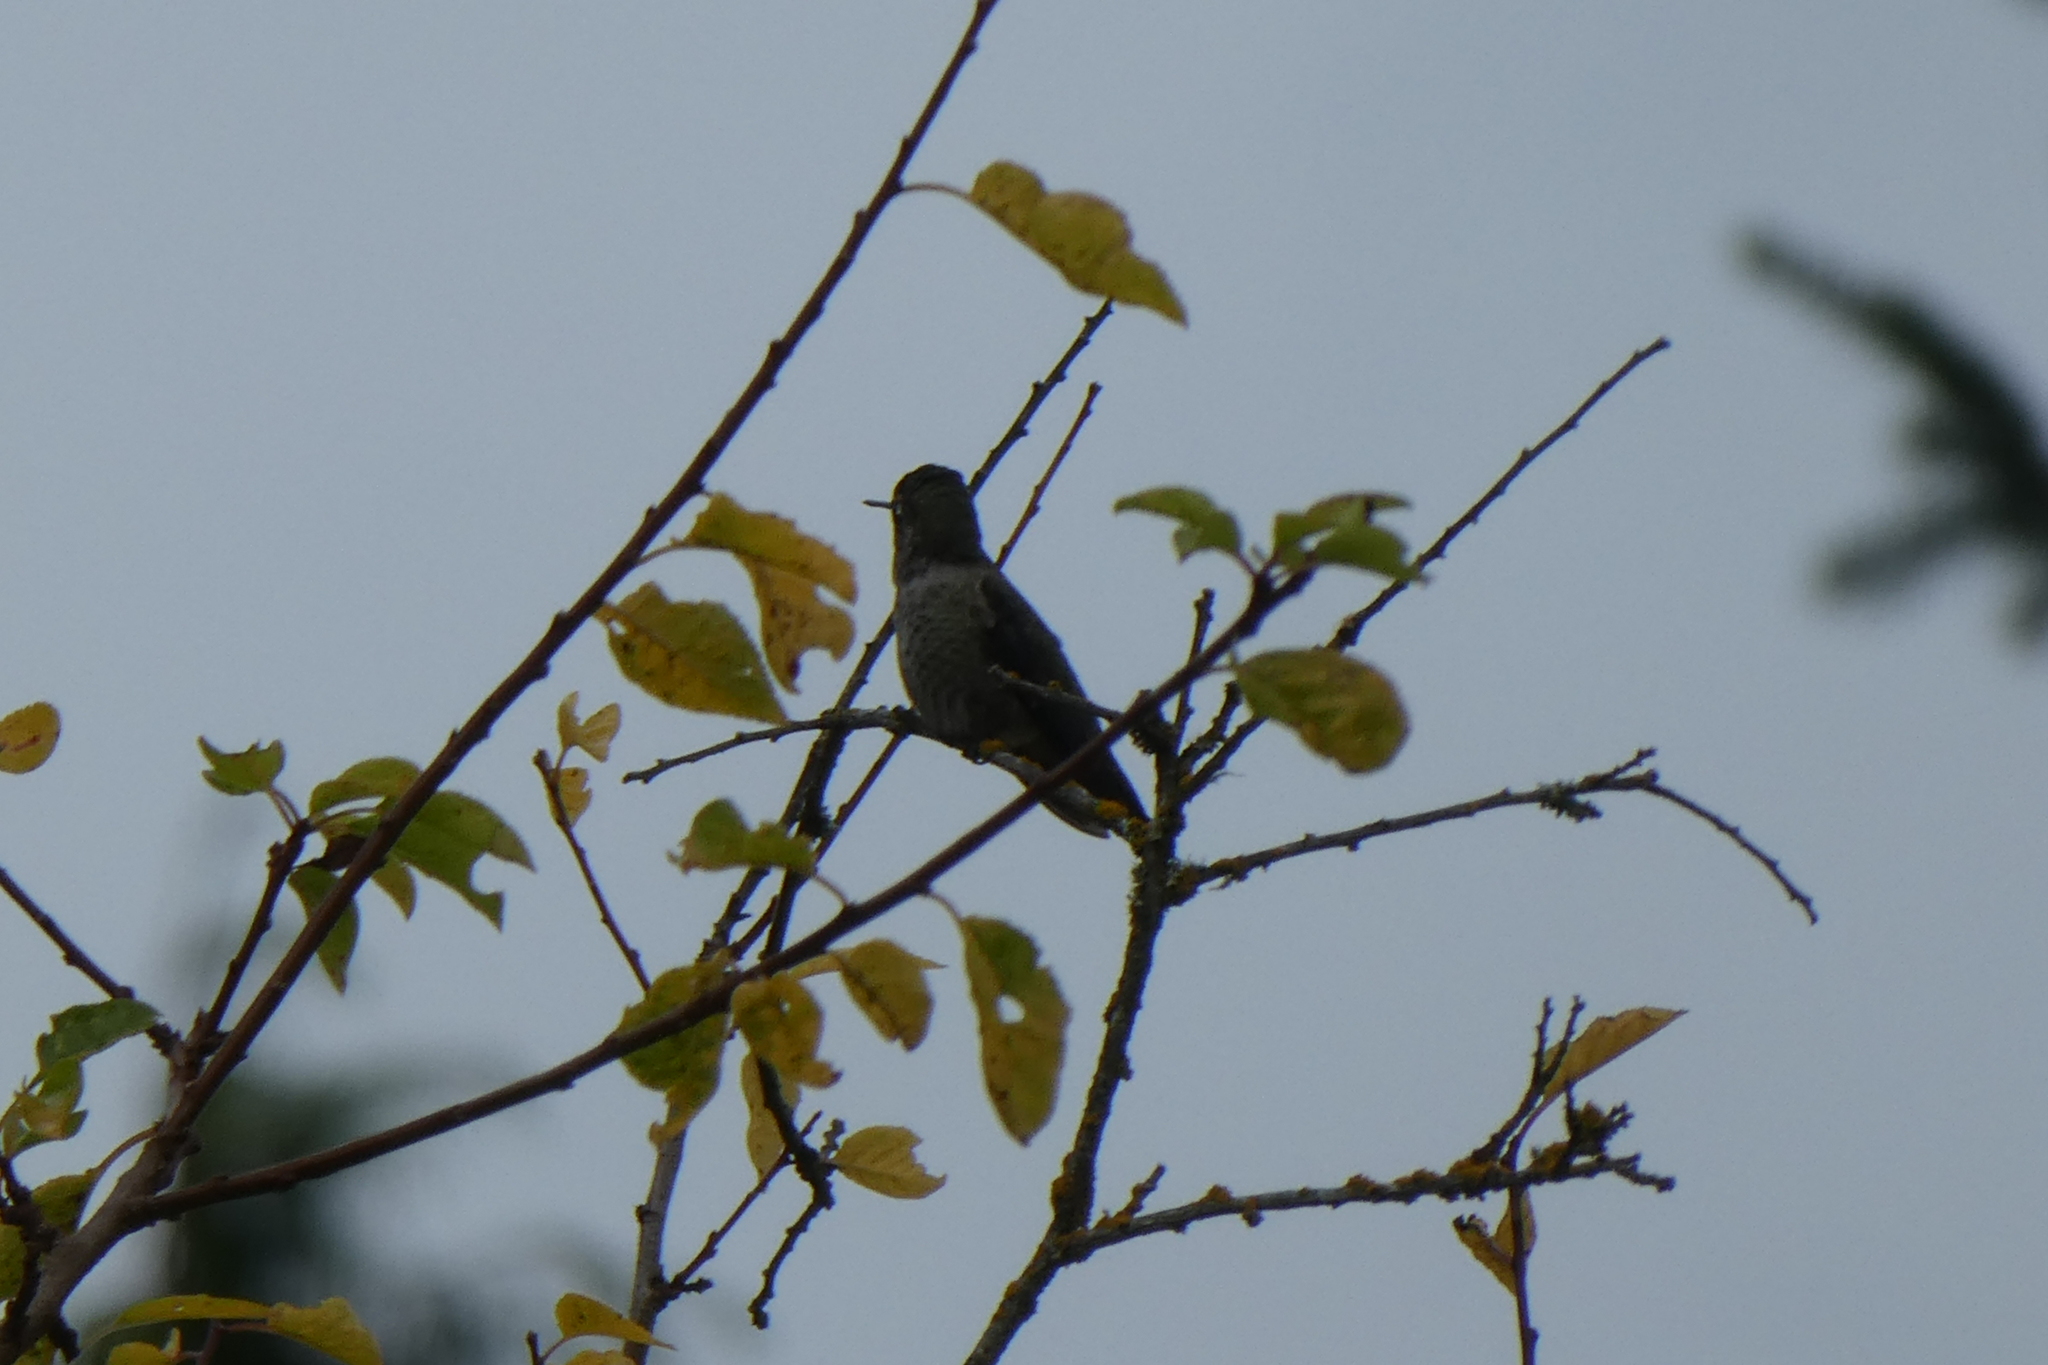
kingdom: Animalia
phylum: Chordata
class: Aves
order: Apodiformes
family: Trochilidae
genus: Calypte
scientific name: Calypte anna
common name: Anna's hummingbird
